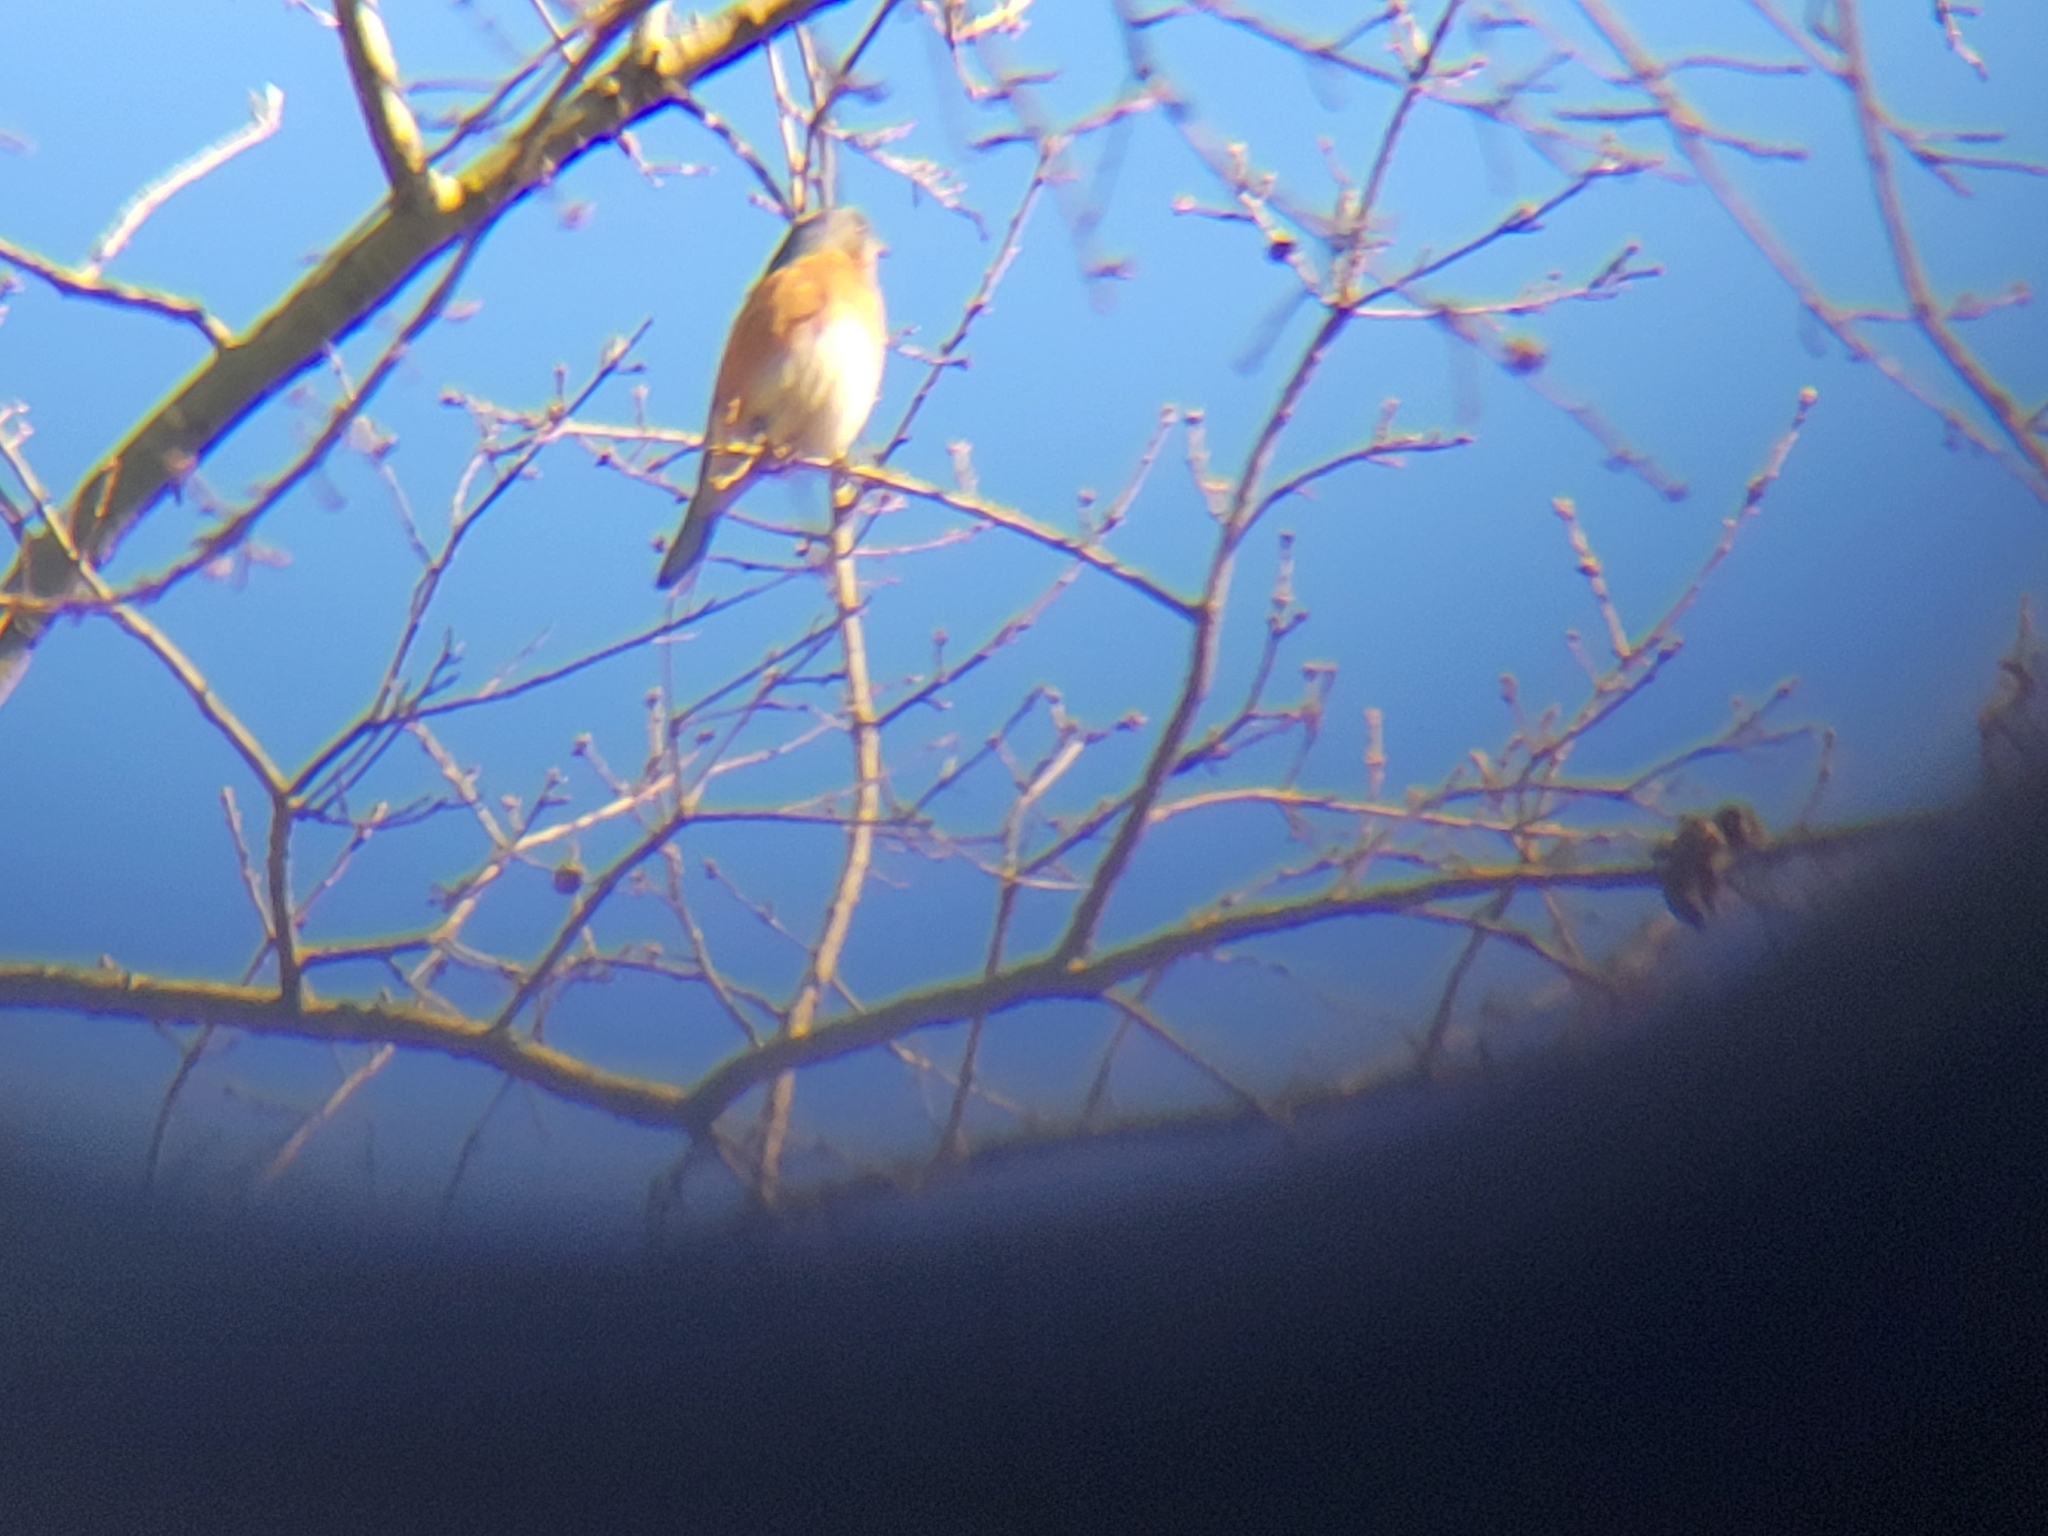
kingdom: Animalia
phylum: Chordata
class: Aves
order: Passeriformes
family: Turdidae
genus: Sialia
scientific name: Sialia sialis
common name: Eastern bluebird
